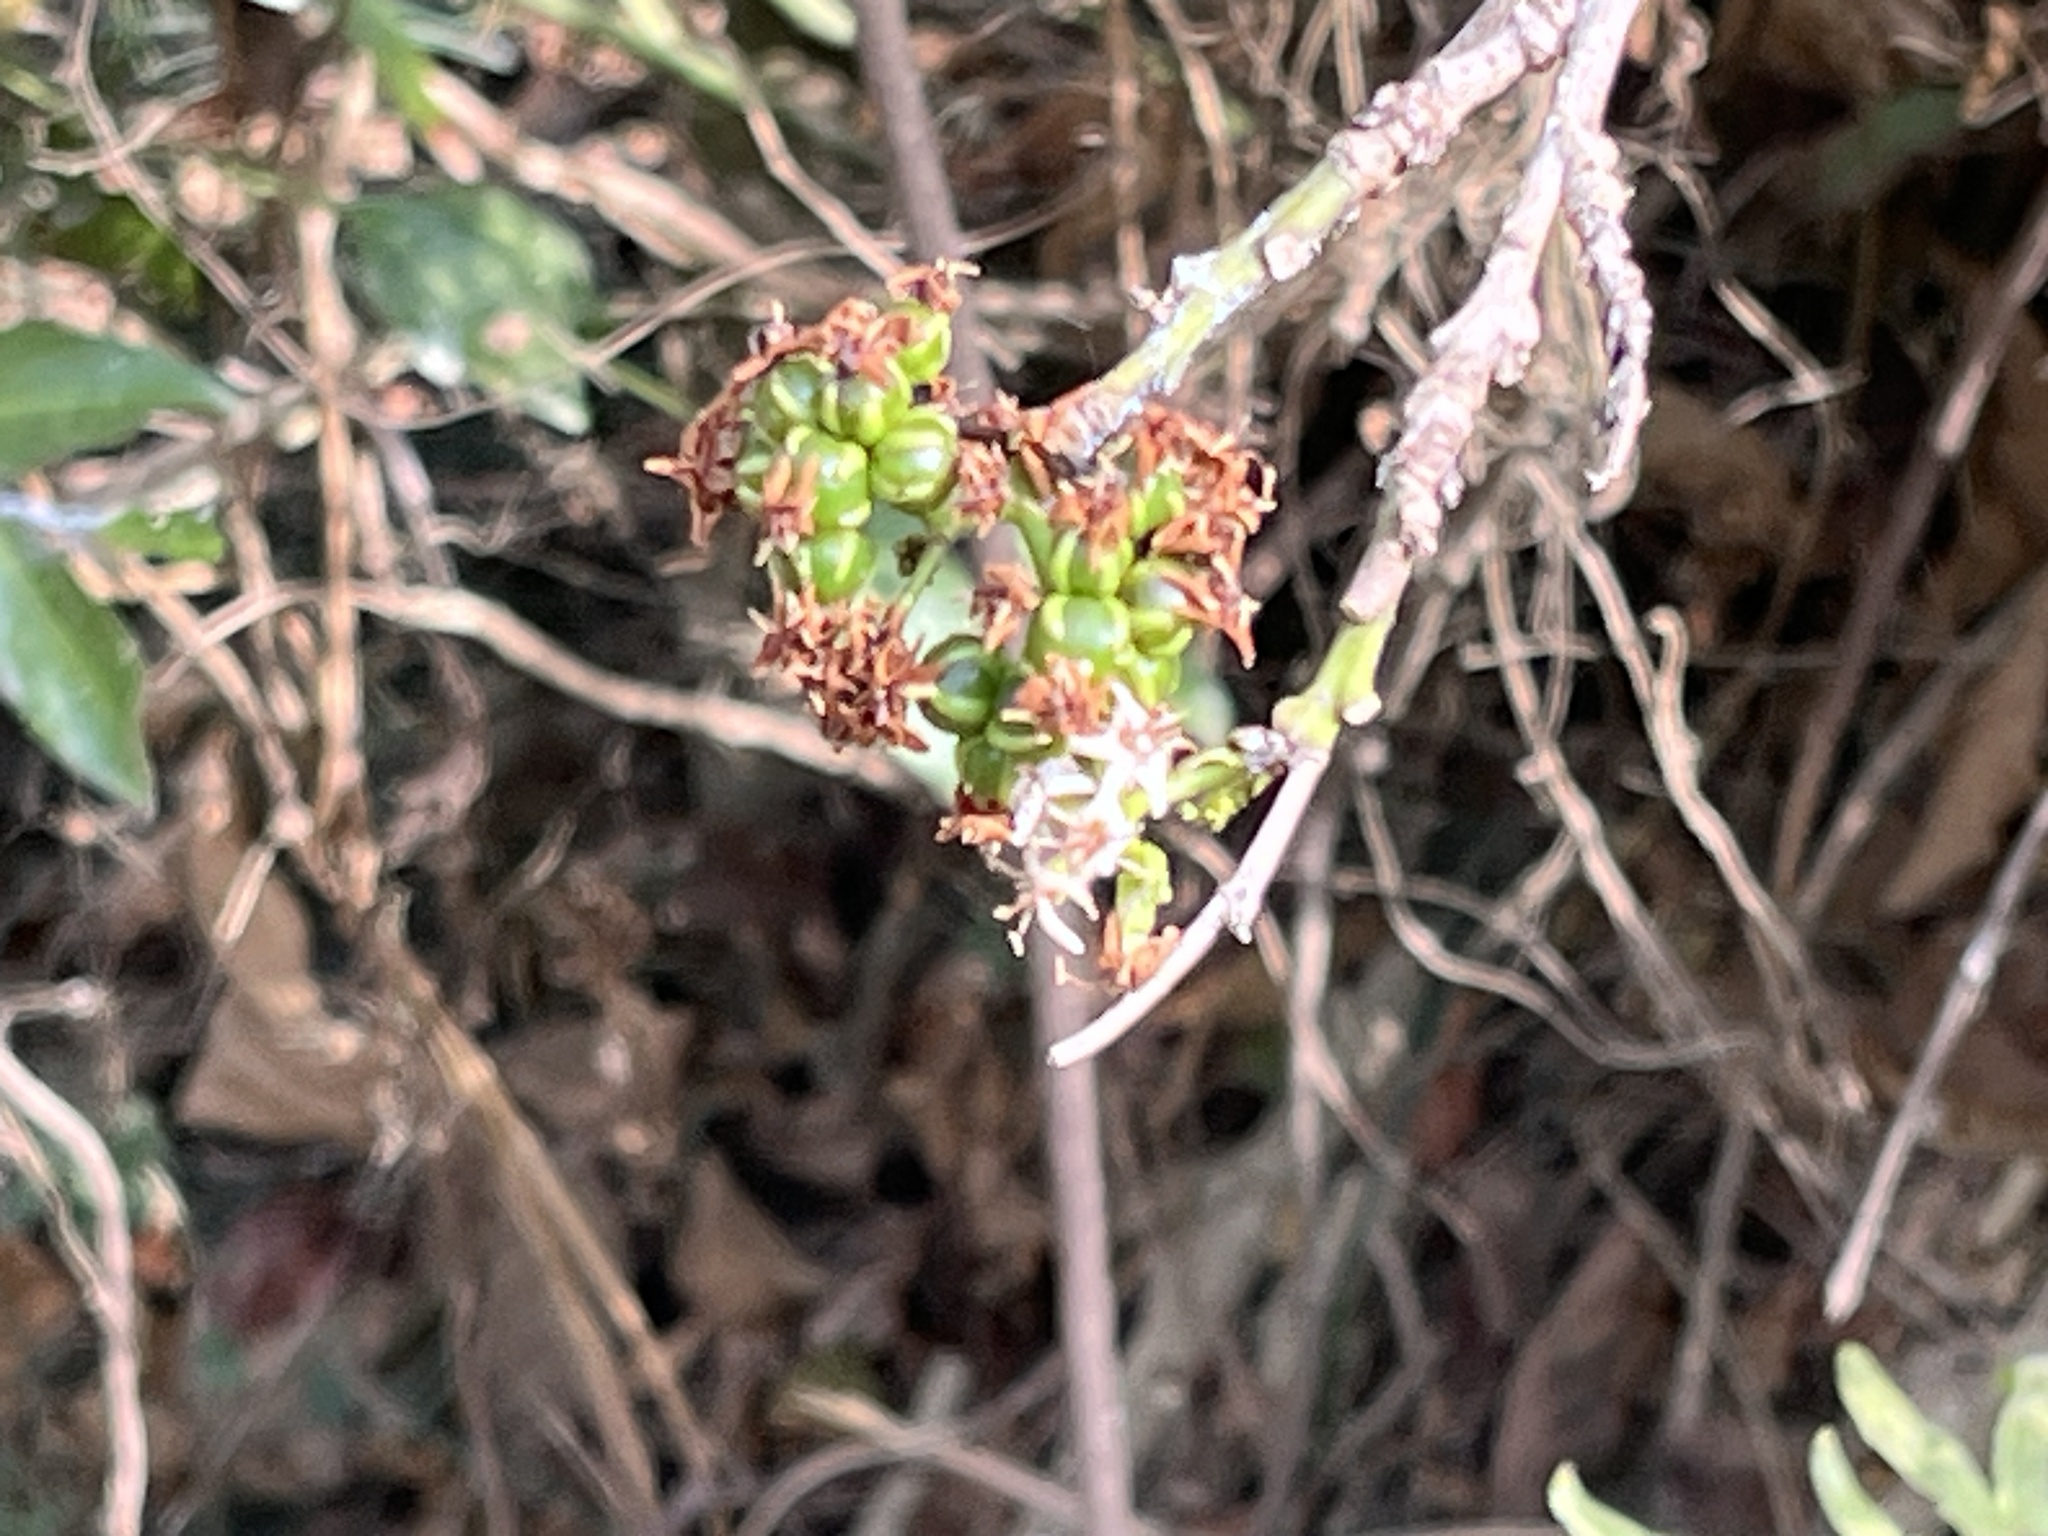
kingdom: Plantae
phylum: Tracheophyta
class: Magnoliopsida
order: Boraginales
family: Ehretiaceae
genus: Ehretia
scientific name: Ehretia resinosa
